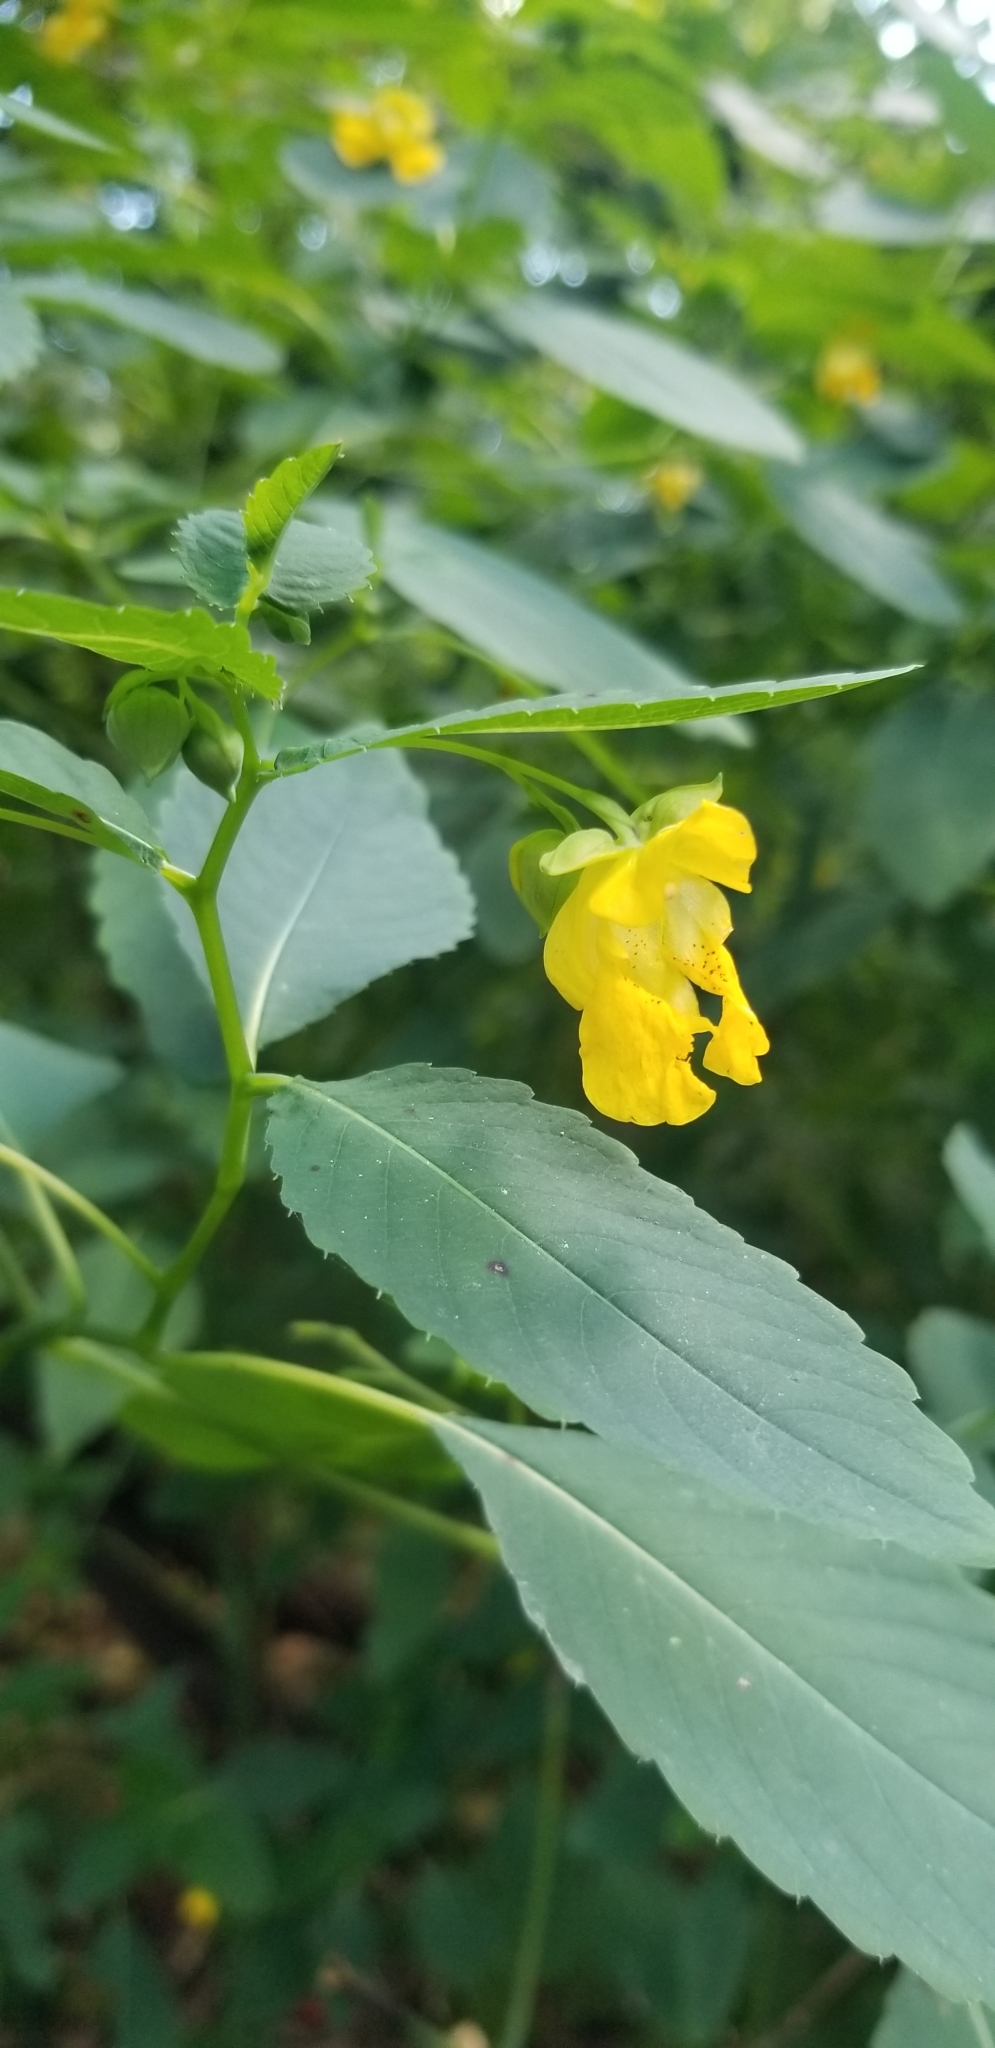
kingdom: Plantae
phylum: Tracheophyta
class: Magnoliopsida
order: Ericales
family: Balsaminaceae
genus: Impatiens
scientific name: Impatiens pallida
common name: Pale snapweed
